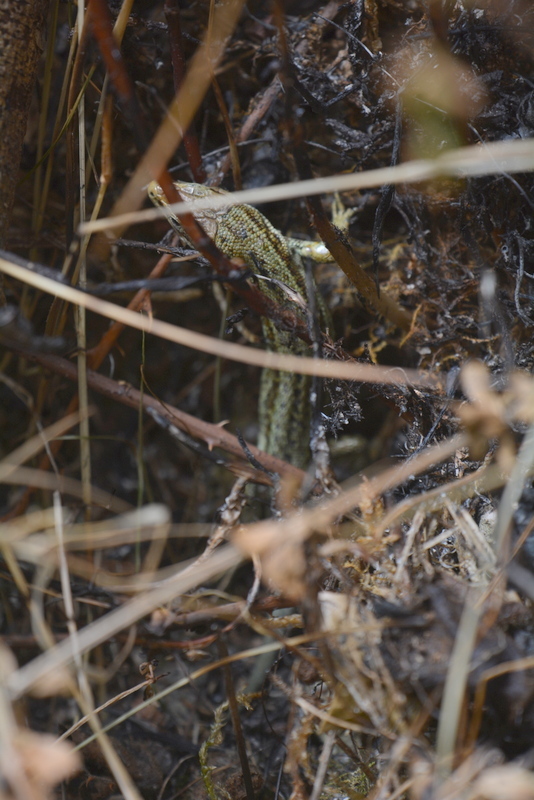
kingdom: Animalia
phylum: Chordata
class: Squamata
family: Lacertidae
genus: Zootoca
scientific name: Zootoca vivipara
